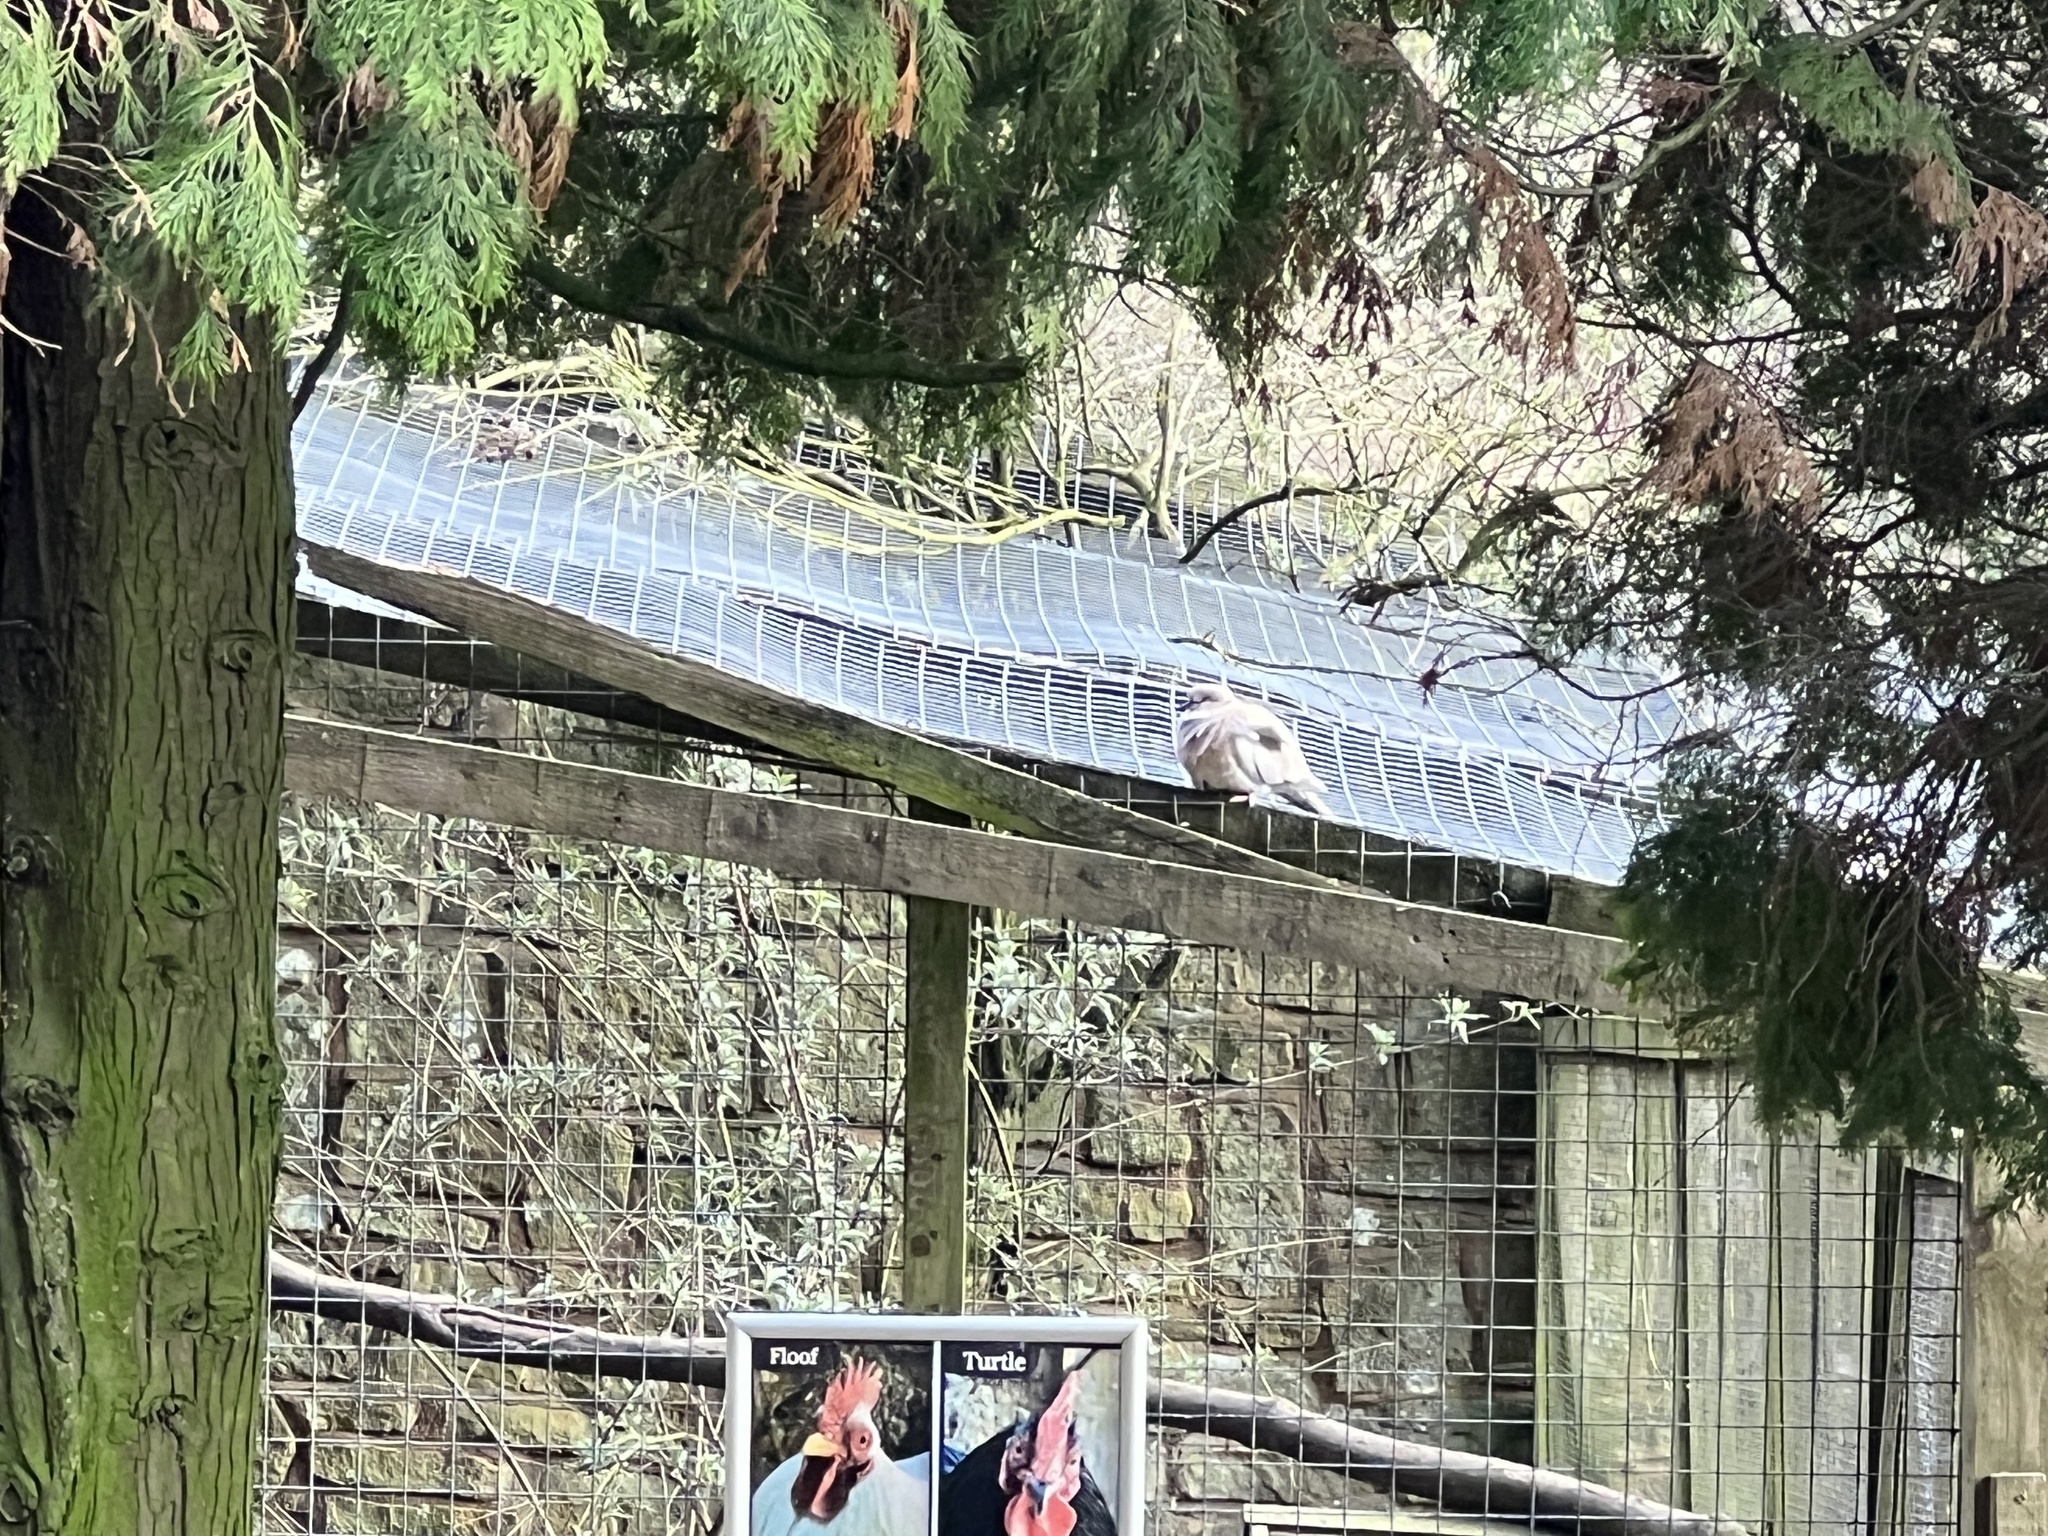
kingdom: Animalia
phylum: Chordata
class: Aves
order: Columbiformes
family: Columbidae
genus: Streptopelia
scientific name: Streptopelia decaocto
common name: Eurasian collared dove
